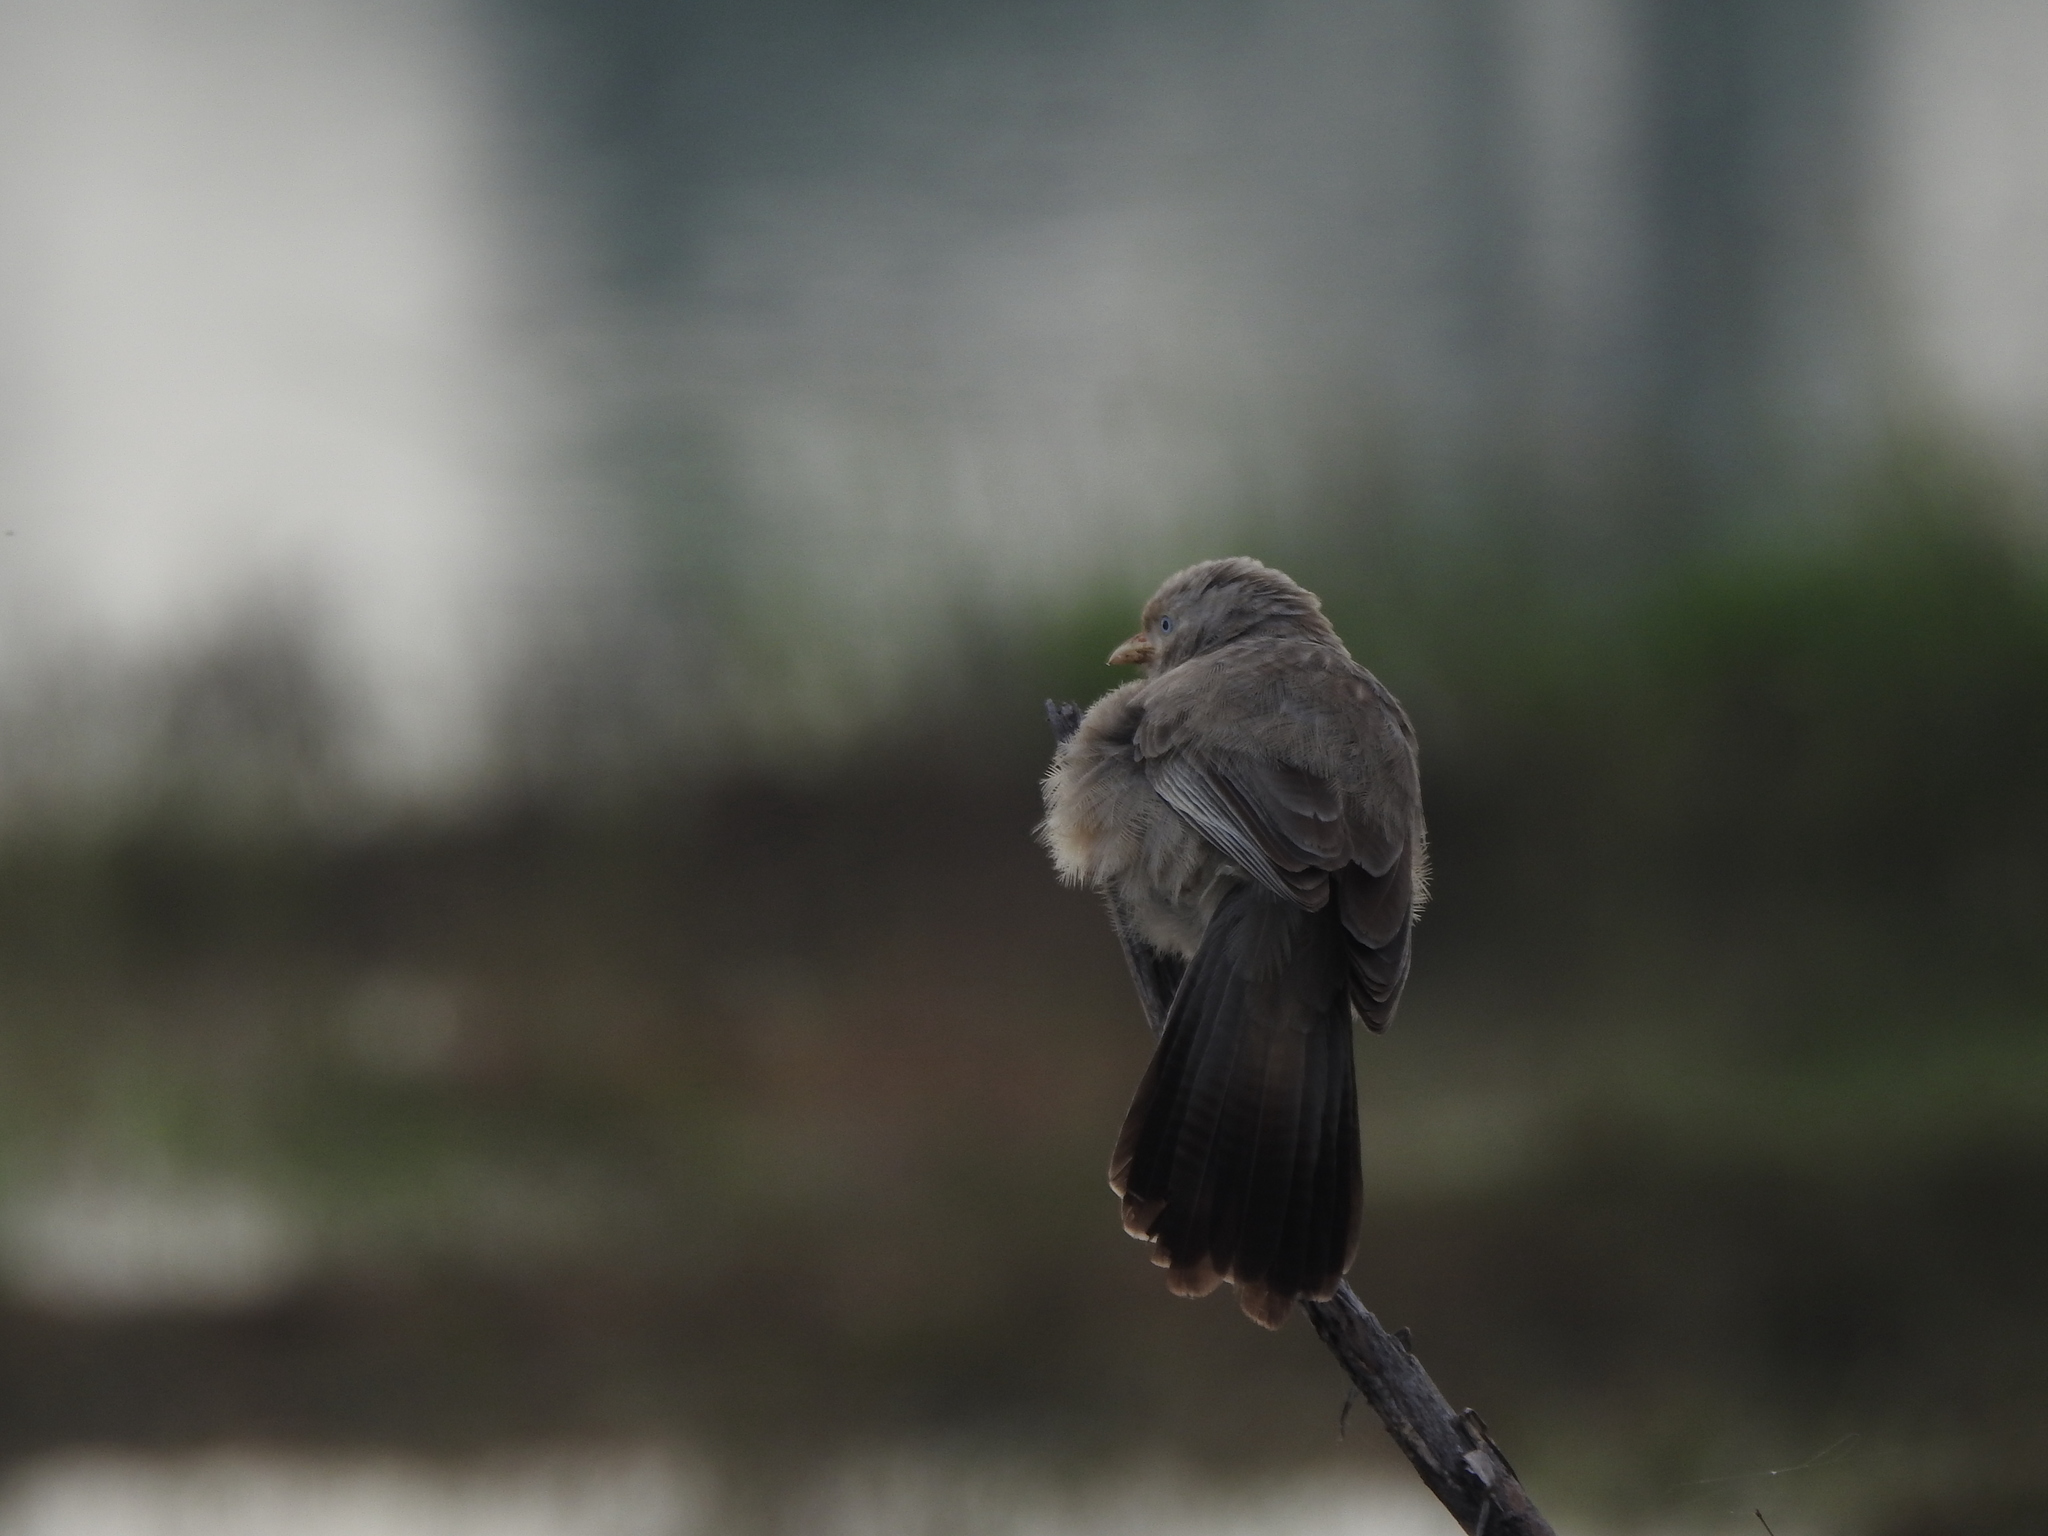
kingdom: Animalia
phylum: Chordata
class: Aves
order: Passeriformes
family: Leiothrichidae
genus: Turdoides
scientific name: Turdoides affinis
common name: Yellow-billed babbler
